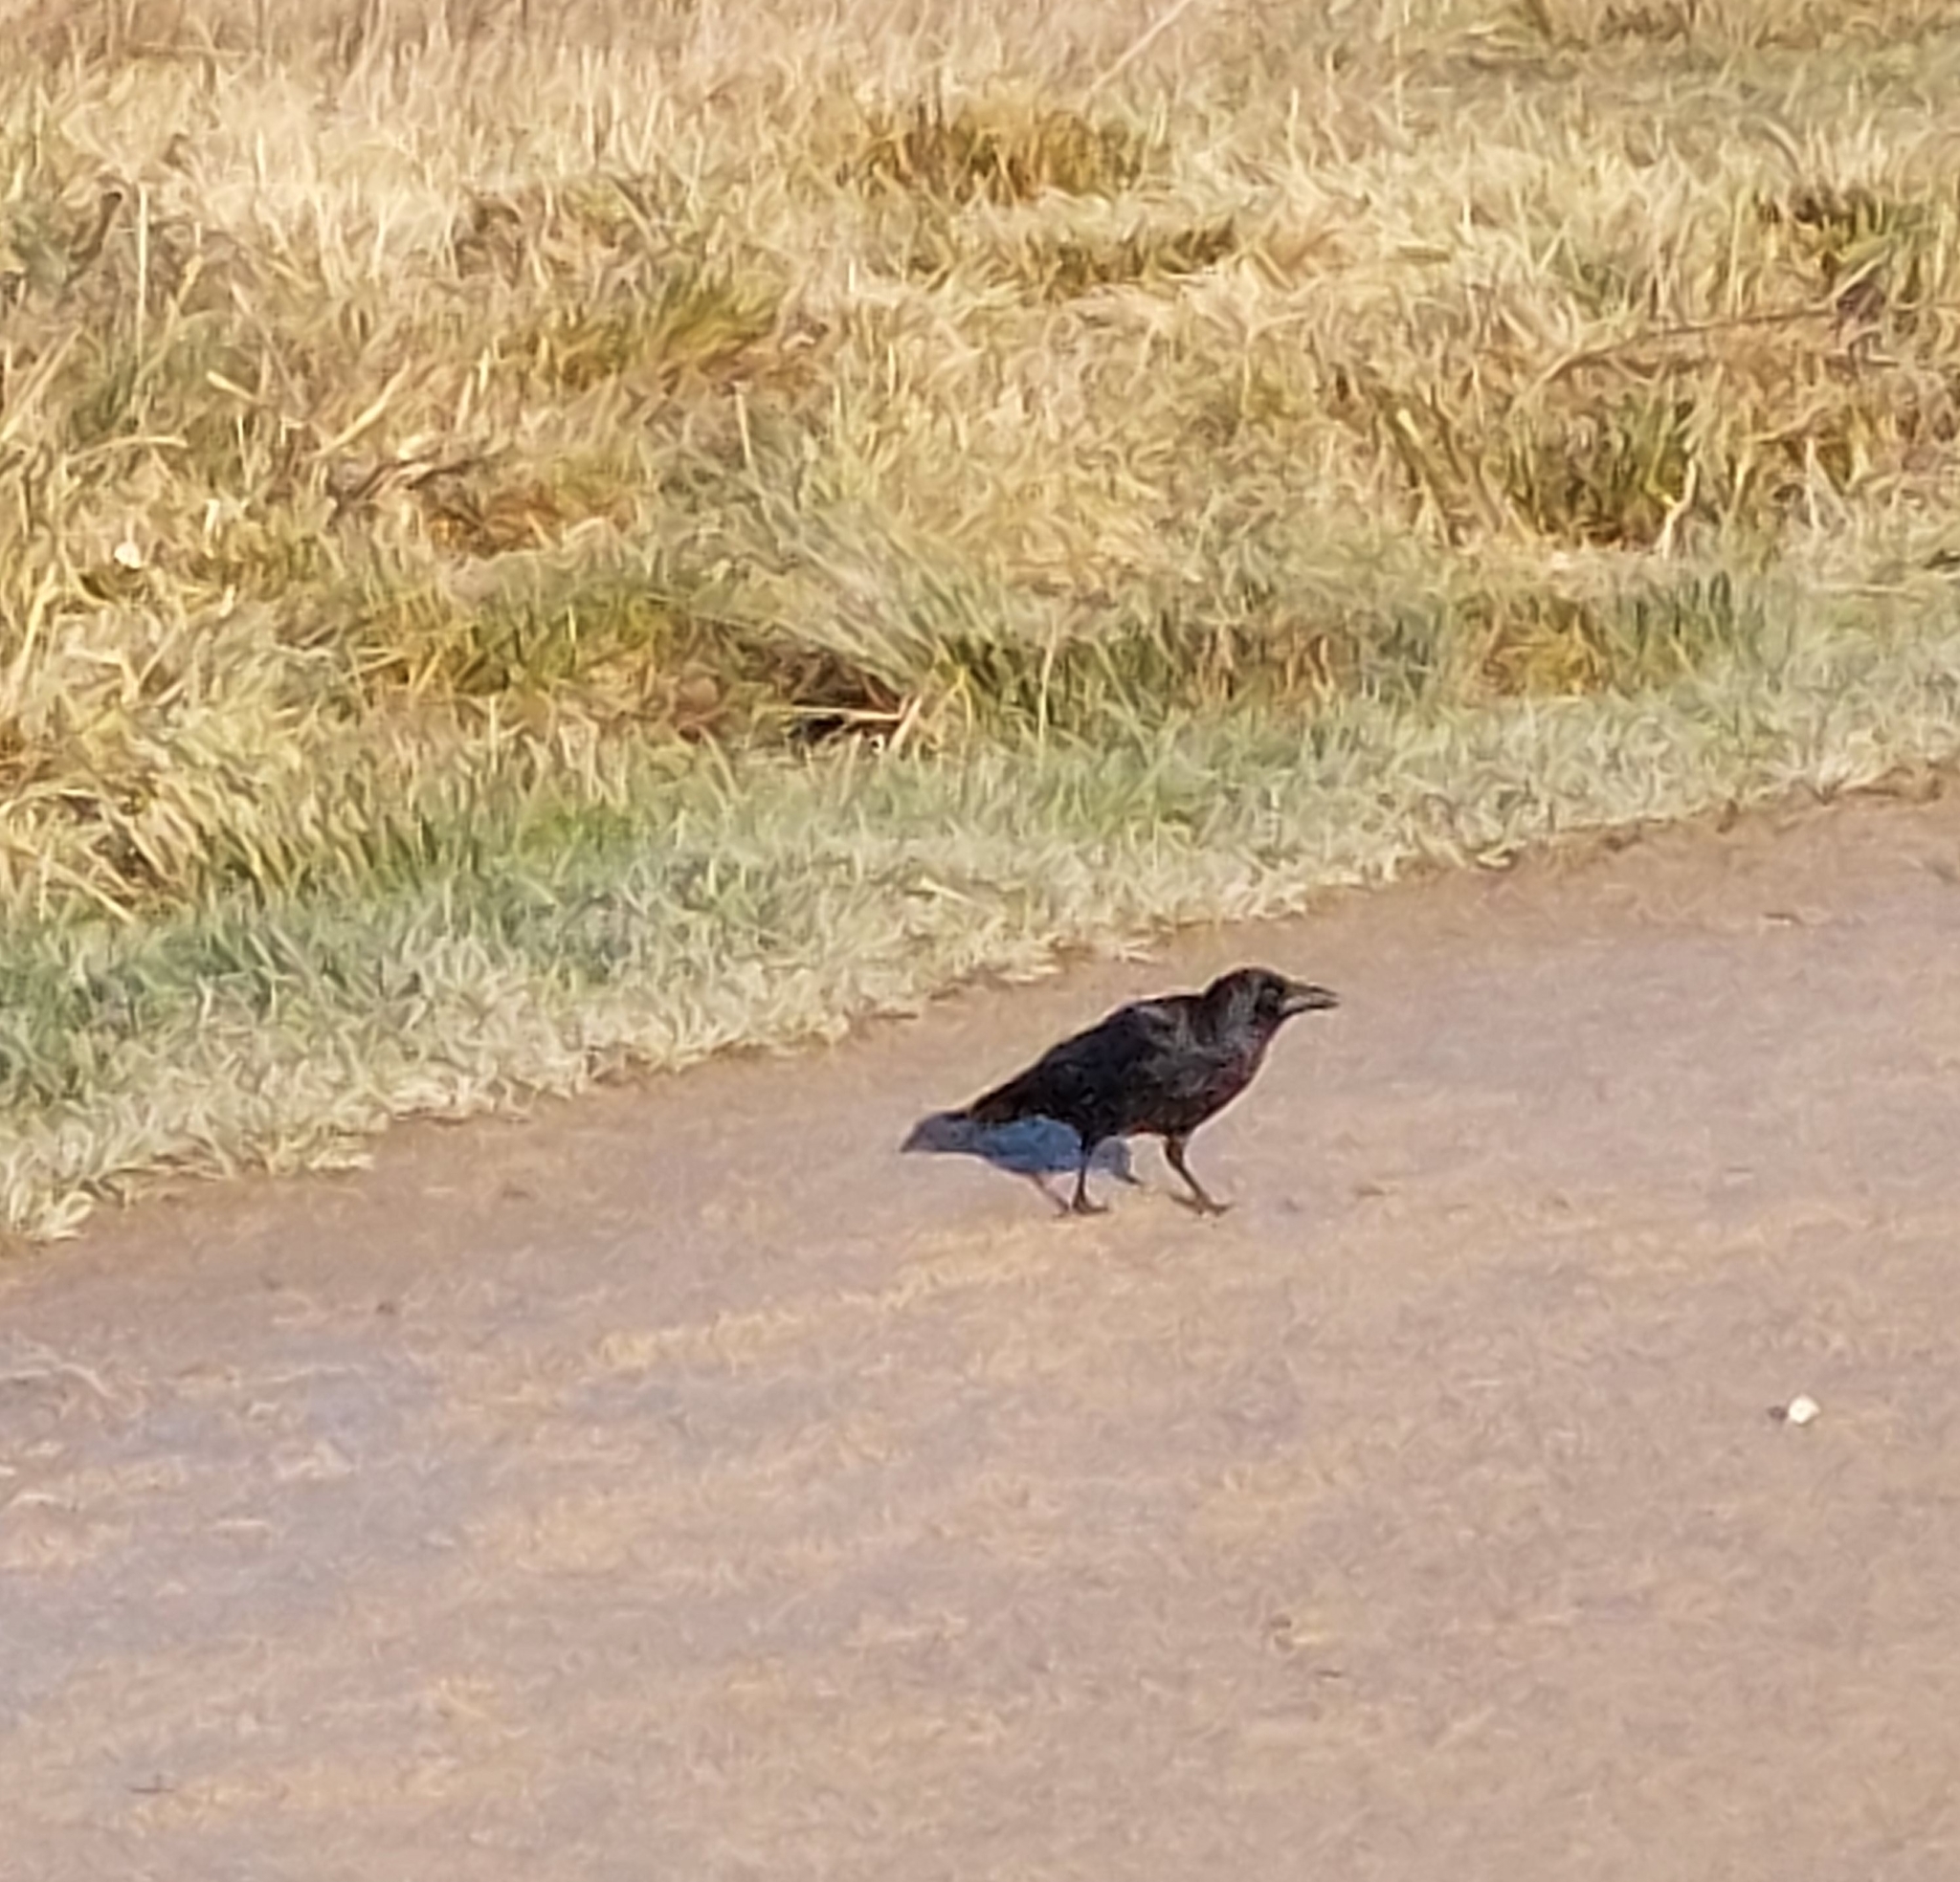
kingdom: Animalia
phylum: Chordata
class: Aves
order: Passeriformes
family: Corvidae
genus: Corvus
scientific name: Corvus corone
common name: Carrion crow
